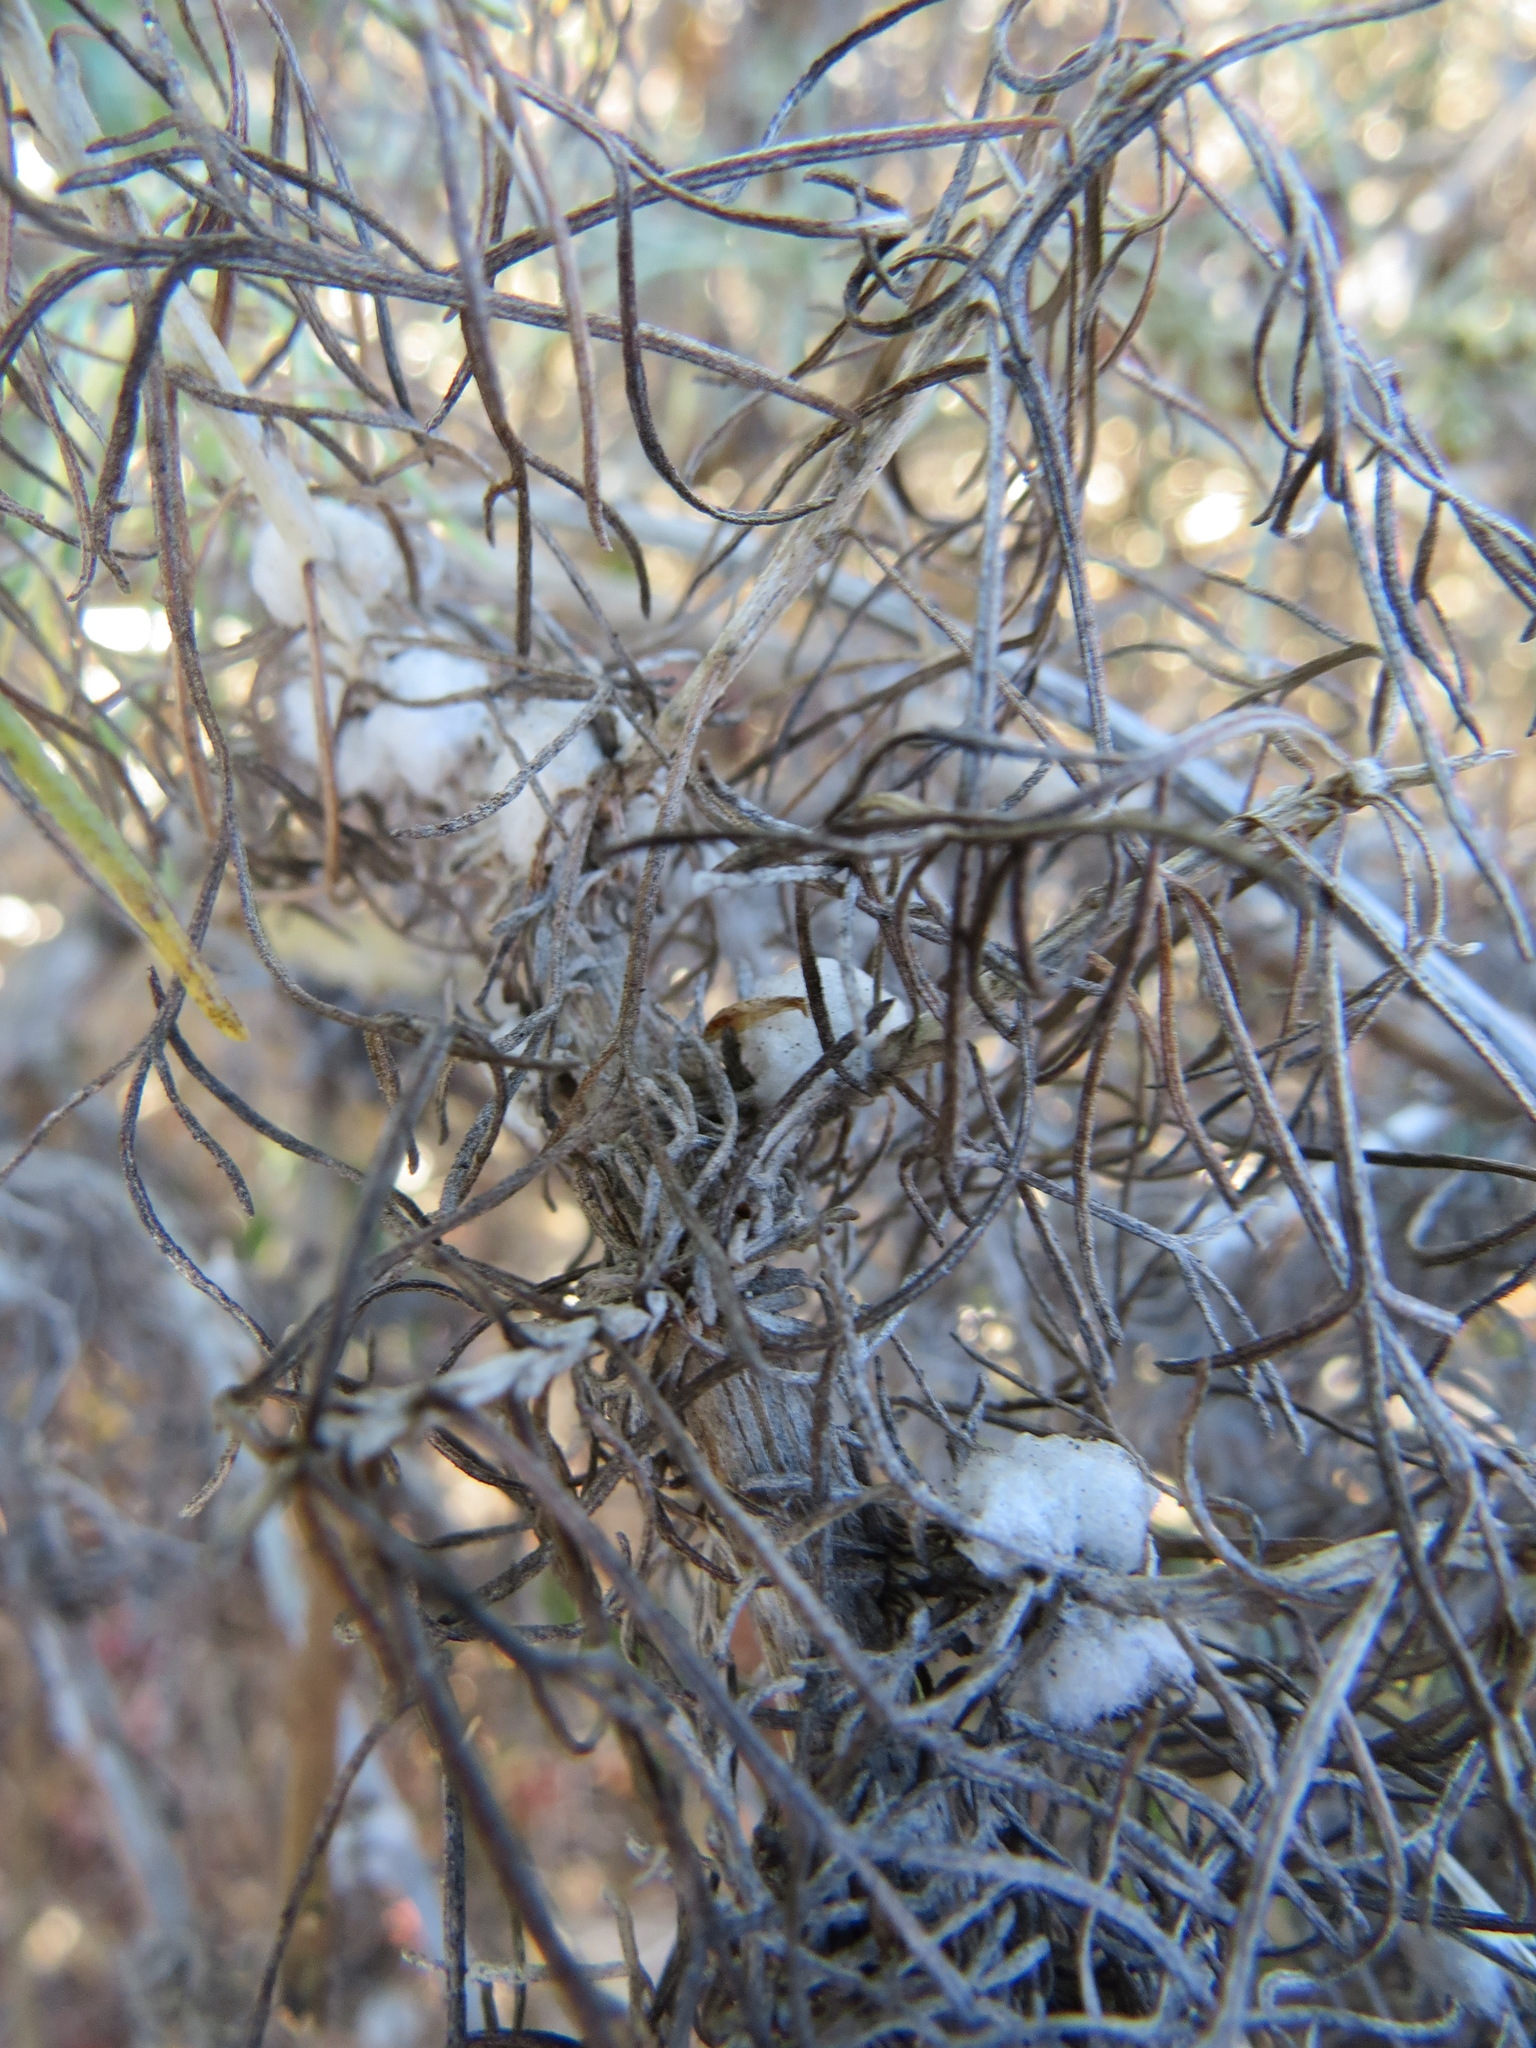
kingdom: Animalia
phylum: Arthropoda
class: Insecta
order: Diptera
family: Cecidomyiidae
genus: Rhopalomyia
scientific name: Rhopalomyia floccosa
